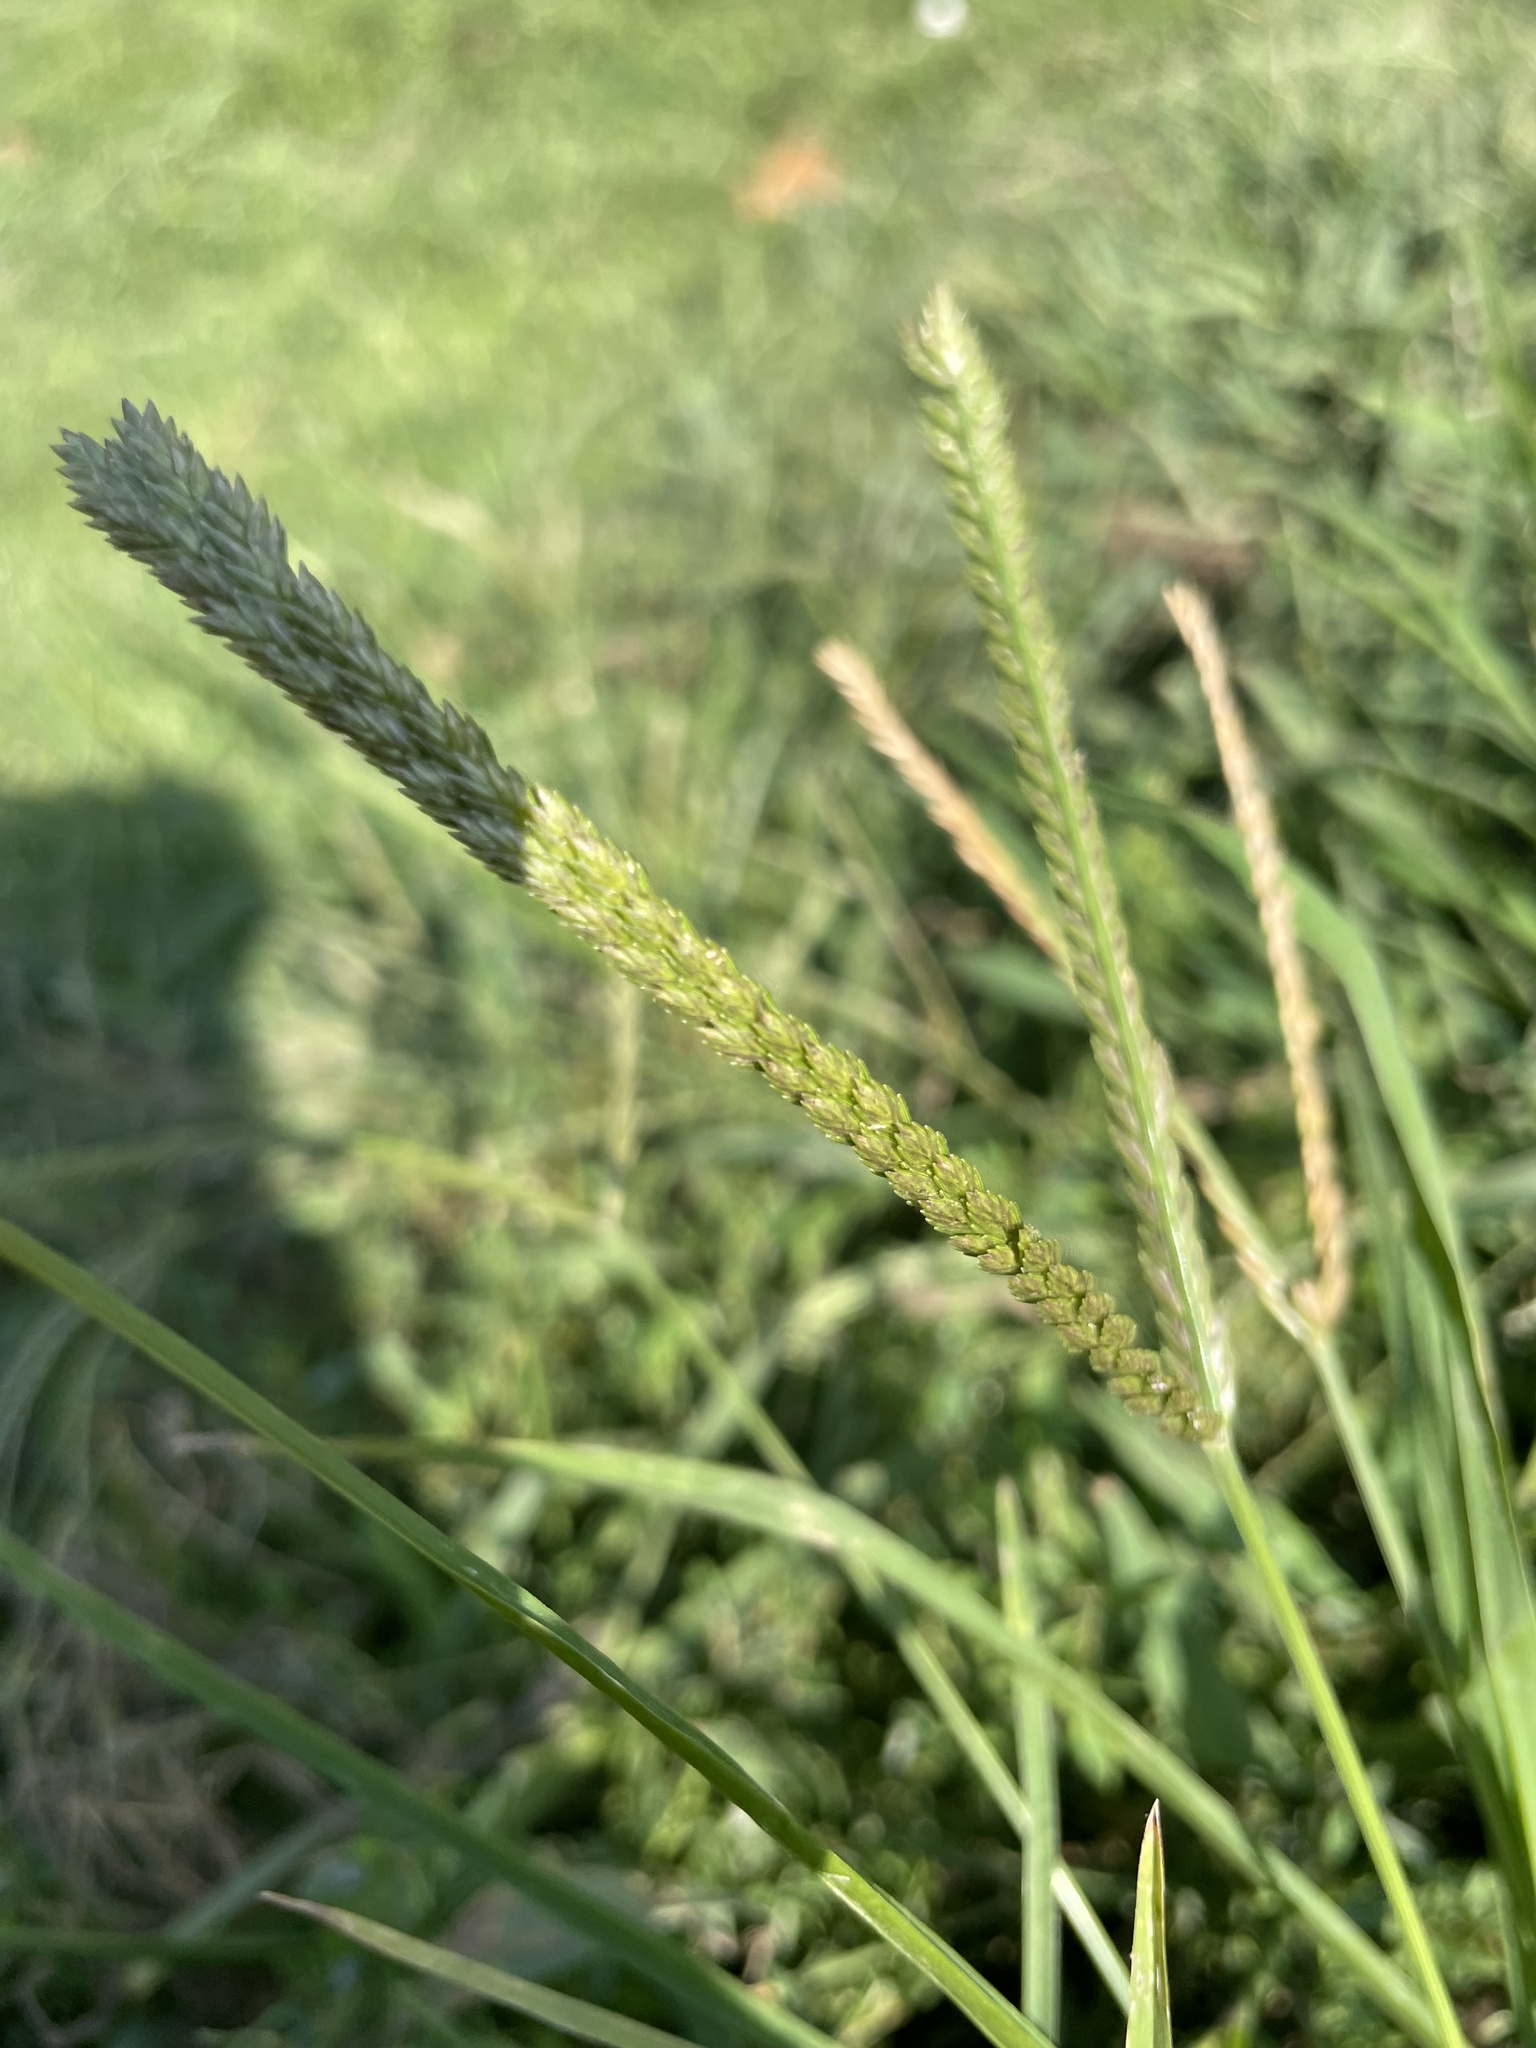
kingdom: Plantae
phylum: Tracheophyta
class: Liliopsida
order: Poales
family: Poaceae
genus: Eleusine
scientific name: Eleusine indica
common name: Yard-grass
